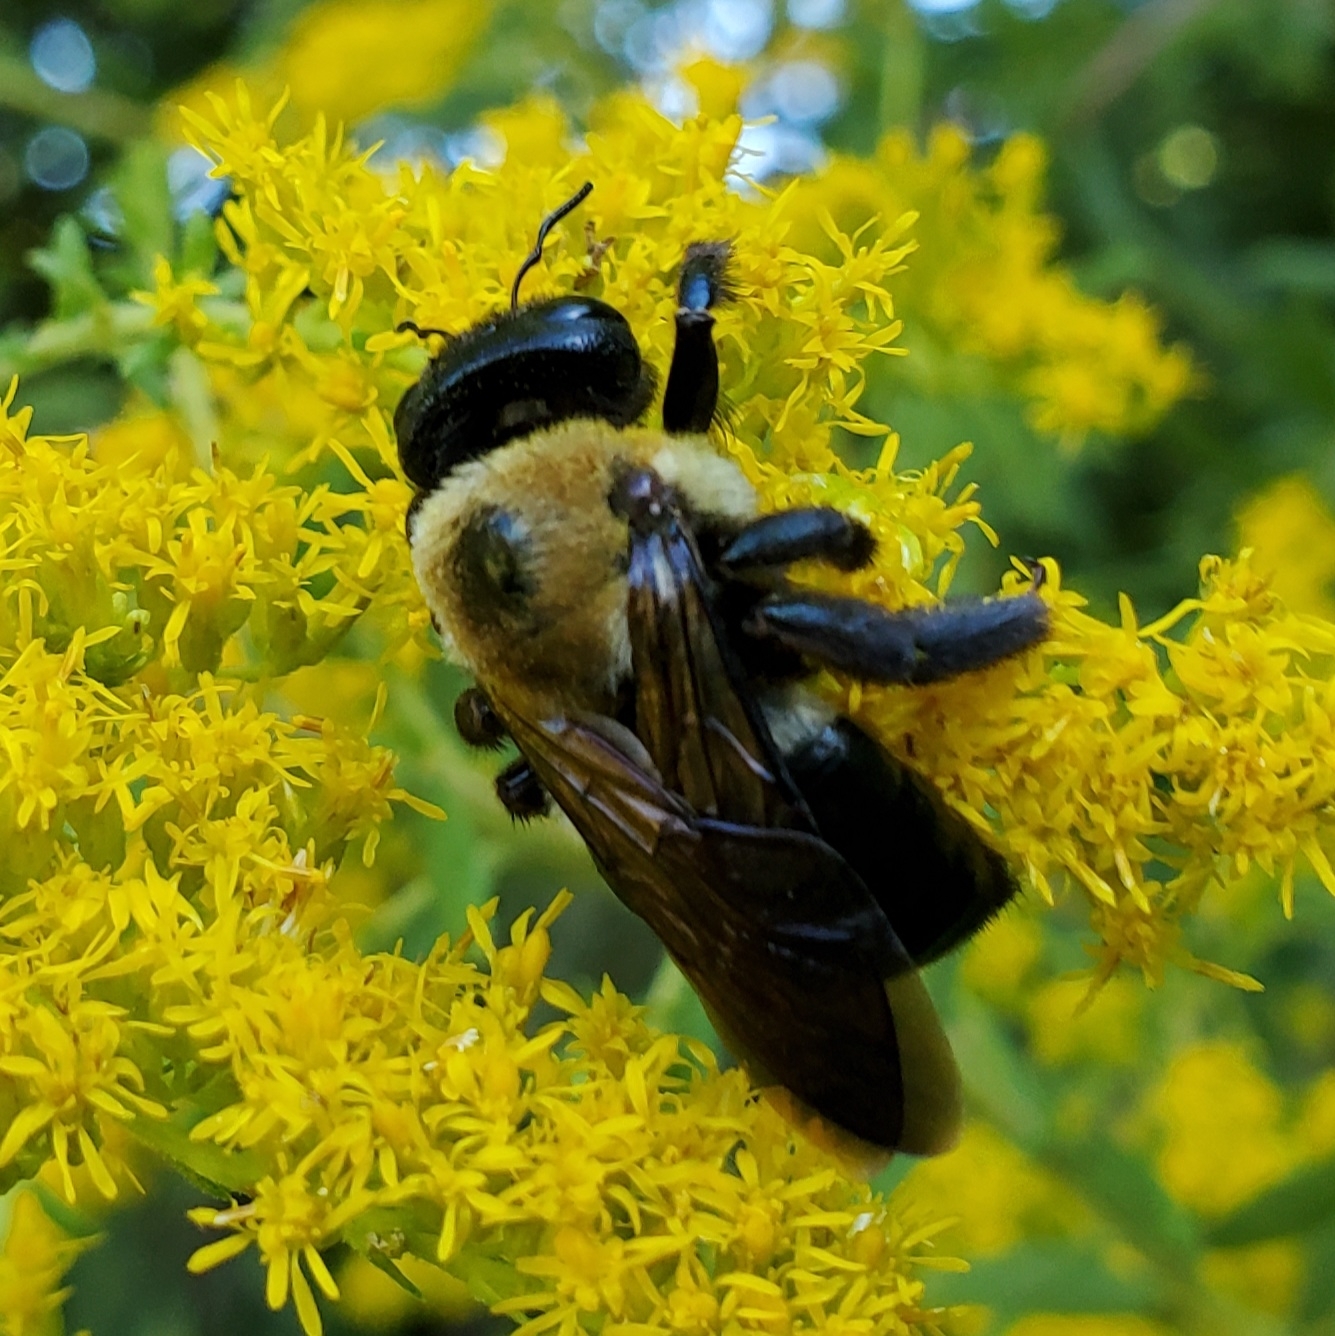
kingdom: Animalia
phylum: Arthropoda
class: Insecta
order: Hymenoptera
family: Apidae
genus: Xylocopa
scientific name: Xylocopa virginica
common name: Carpenter bee
